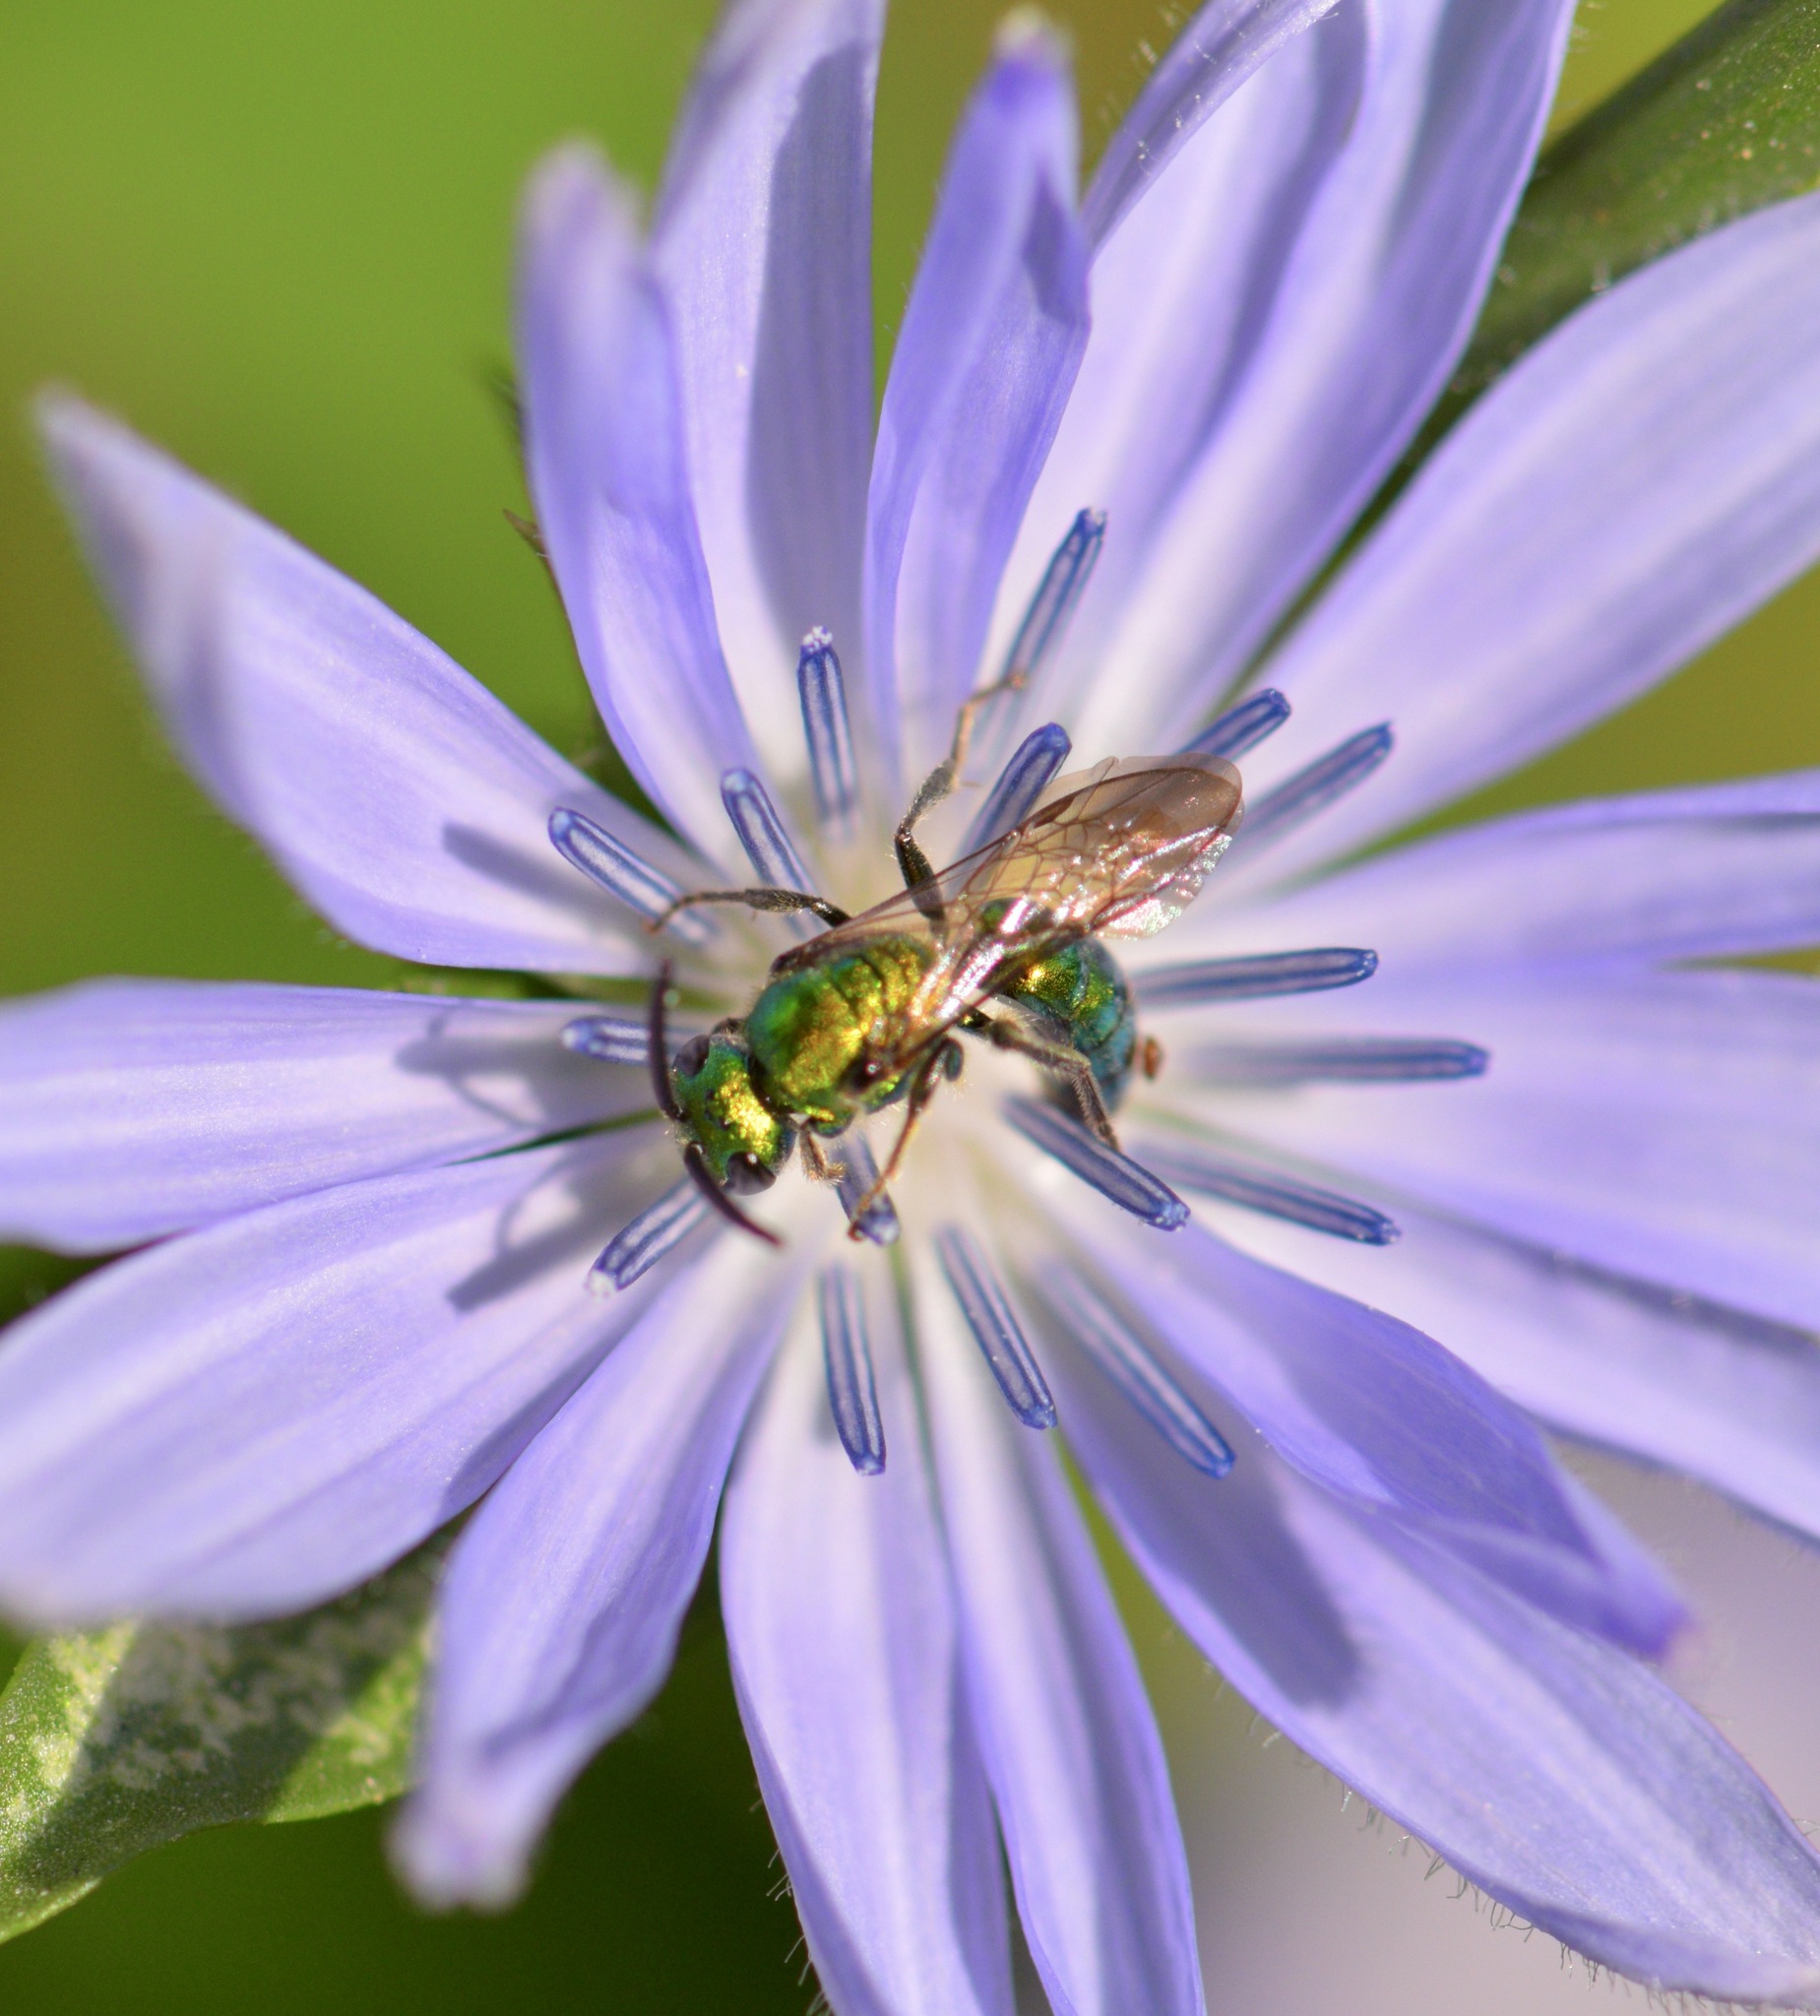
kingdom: Animalia
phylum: Arthropoda
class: Insecta
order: Hymenoptera
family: Halictidae
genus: Augochlora
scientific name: Augochlora pura
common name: Pure green sweat bee
